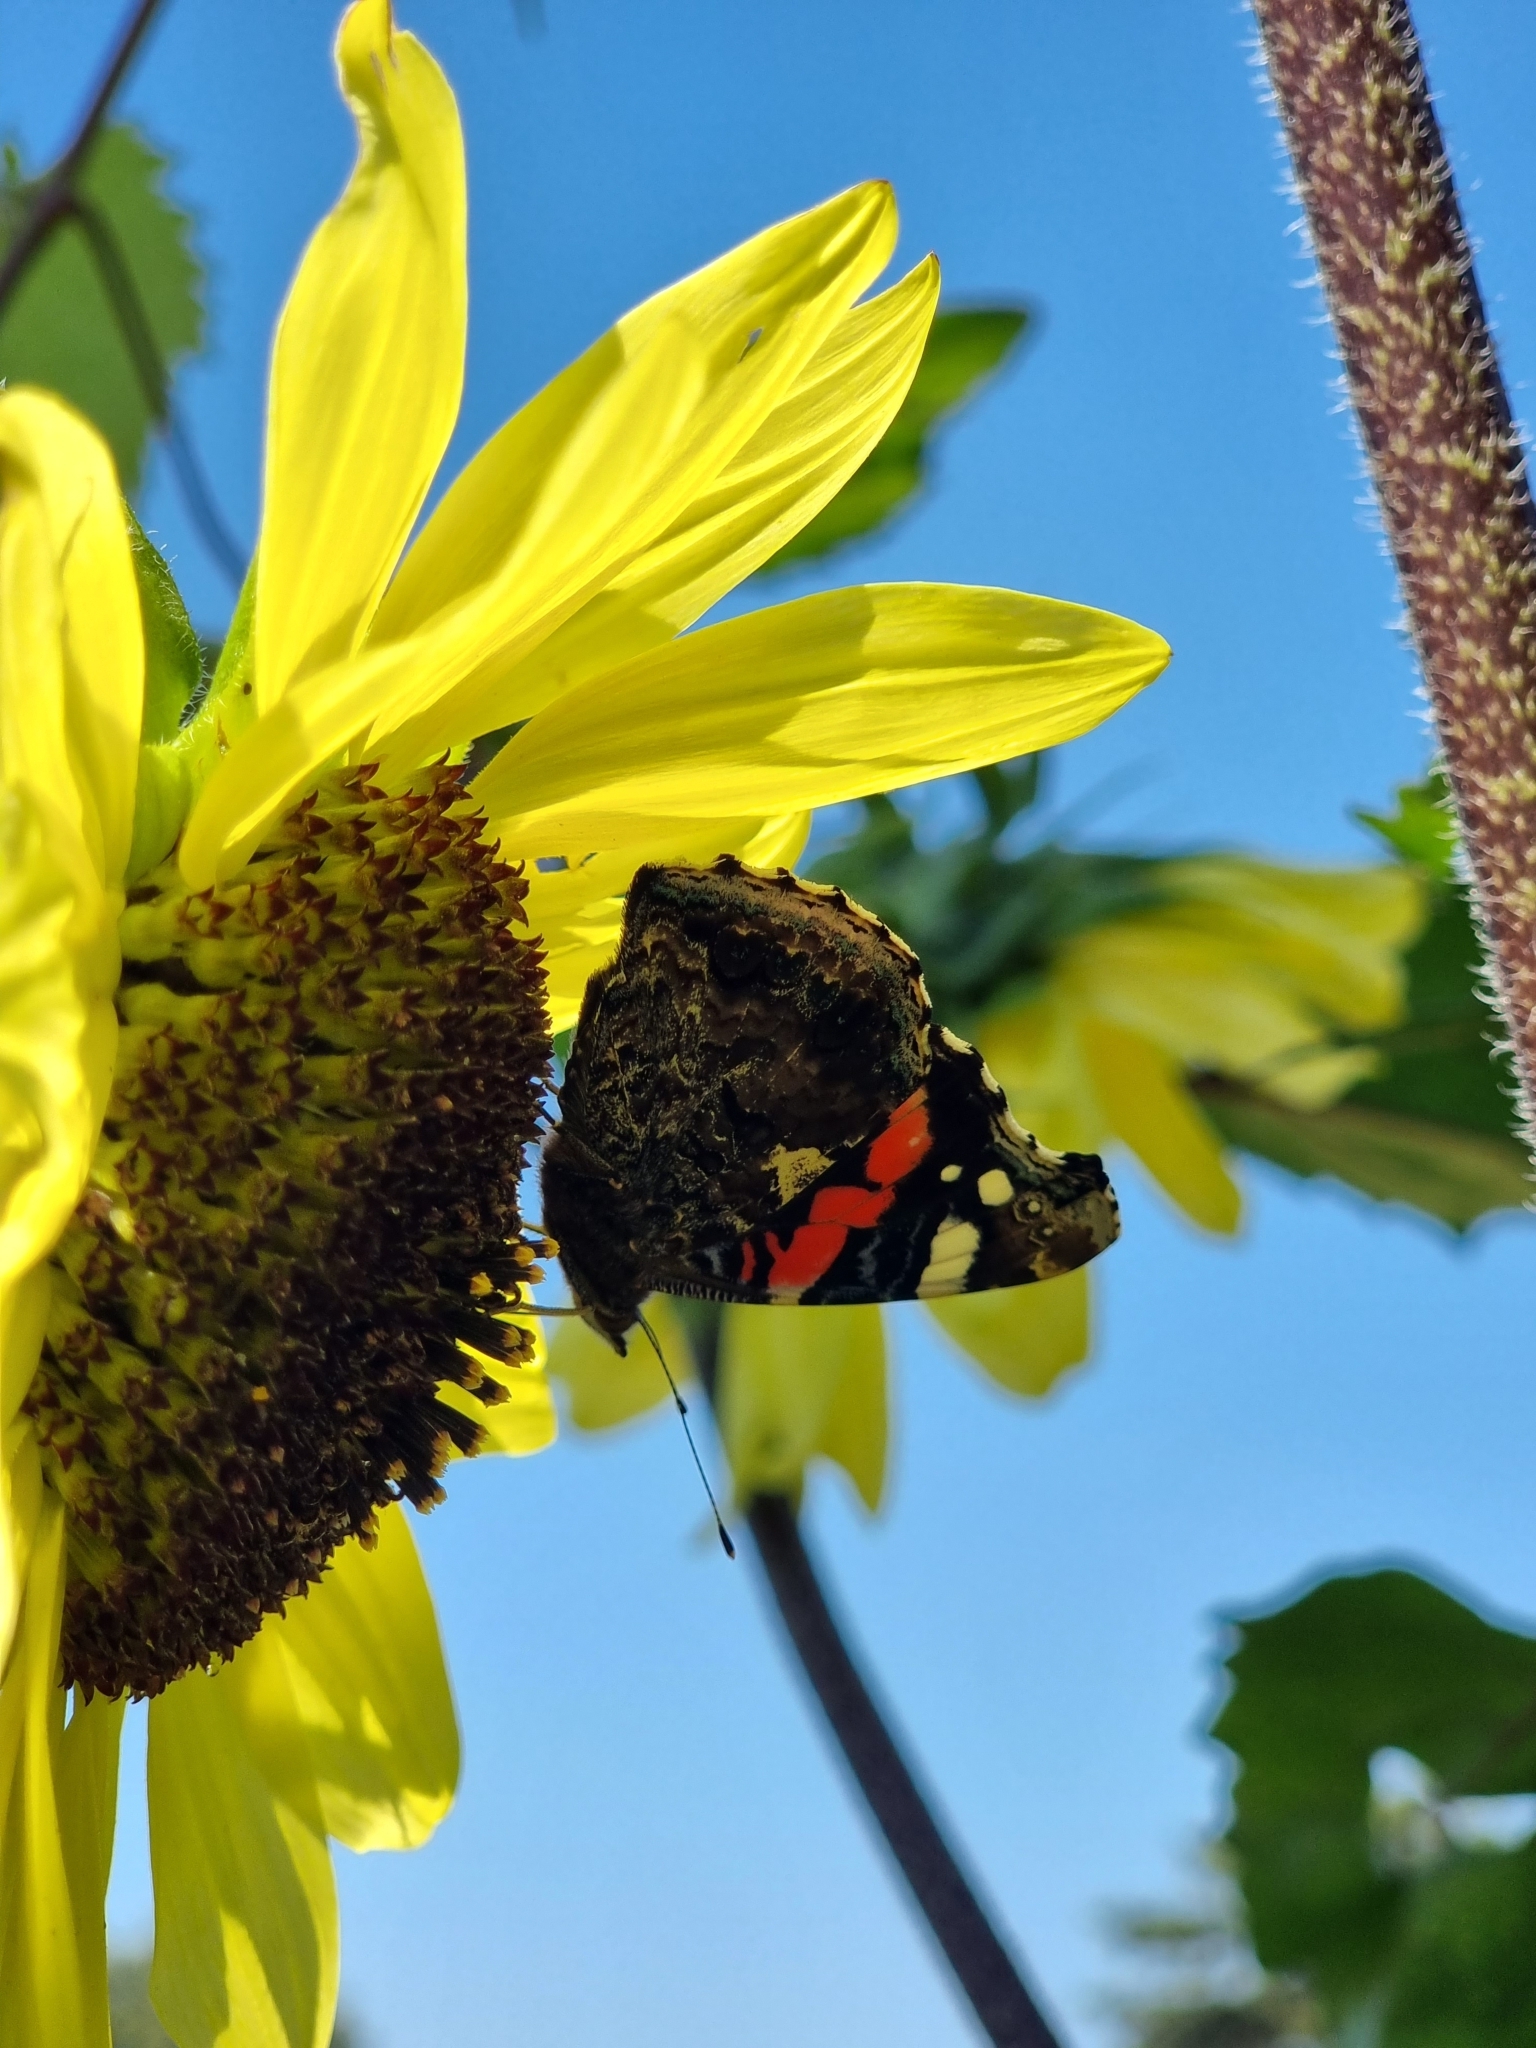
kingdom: Animalia
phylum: Arthropoda
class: Insecta
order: Lepidoptera
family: Nymphalidae
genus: Vanessa
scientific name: Vanessa atalanta
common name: Red admiral
